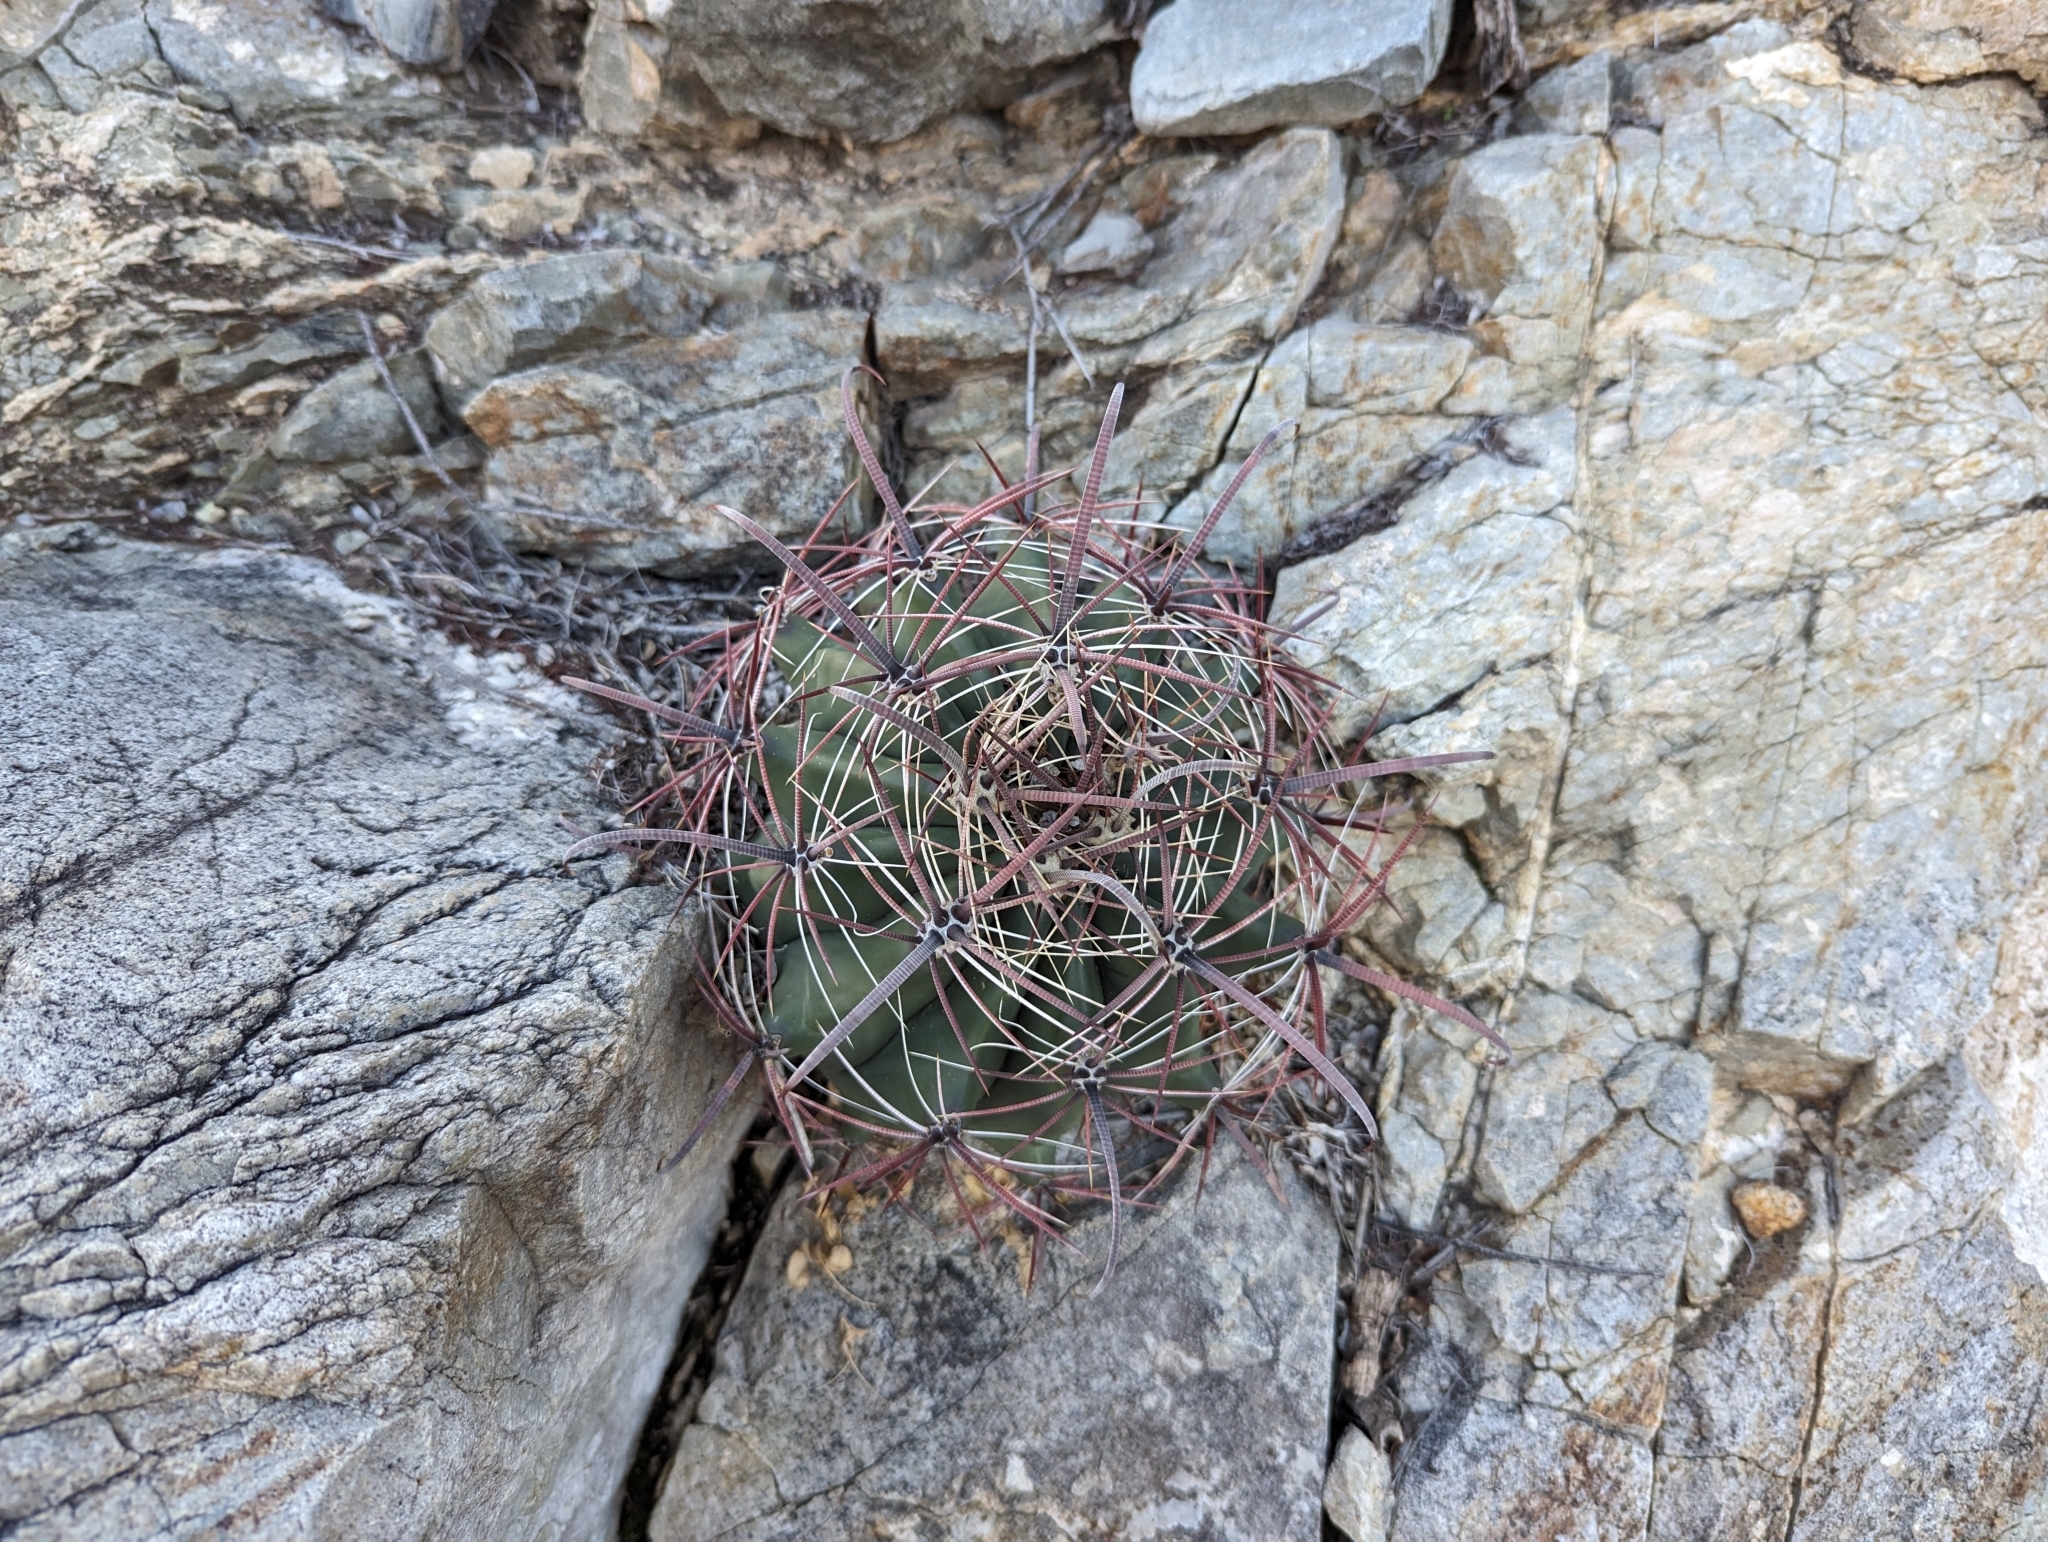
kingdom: Plantae
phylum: Tracheophyta
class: Magnoliopsida
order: Caryophyllales
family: Cactaceae
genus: Ferocactus
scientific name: Ferocactus wislizeni
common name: Candy barrel cactus
